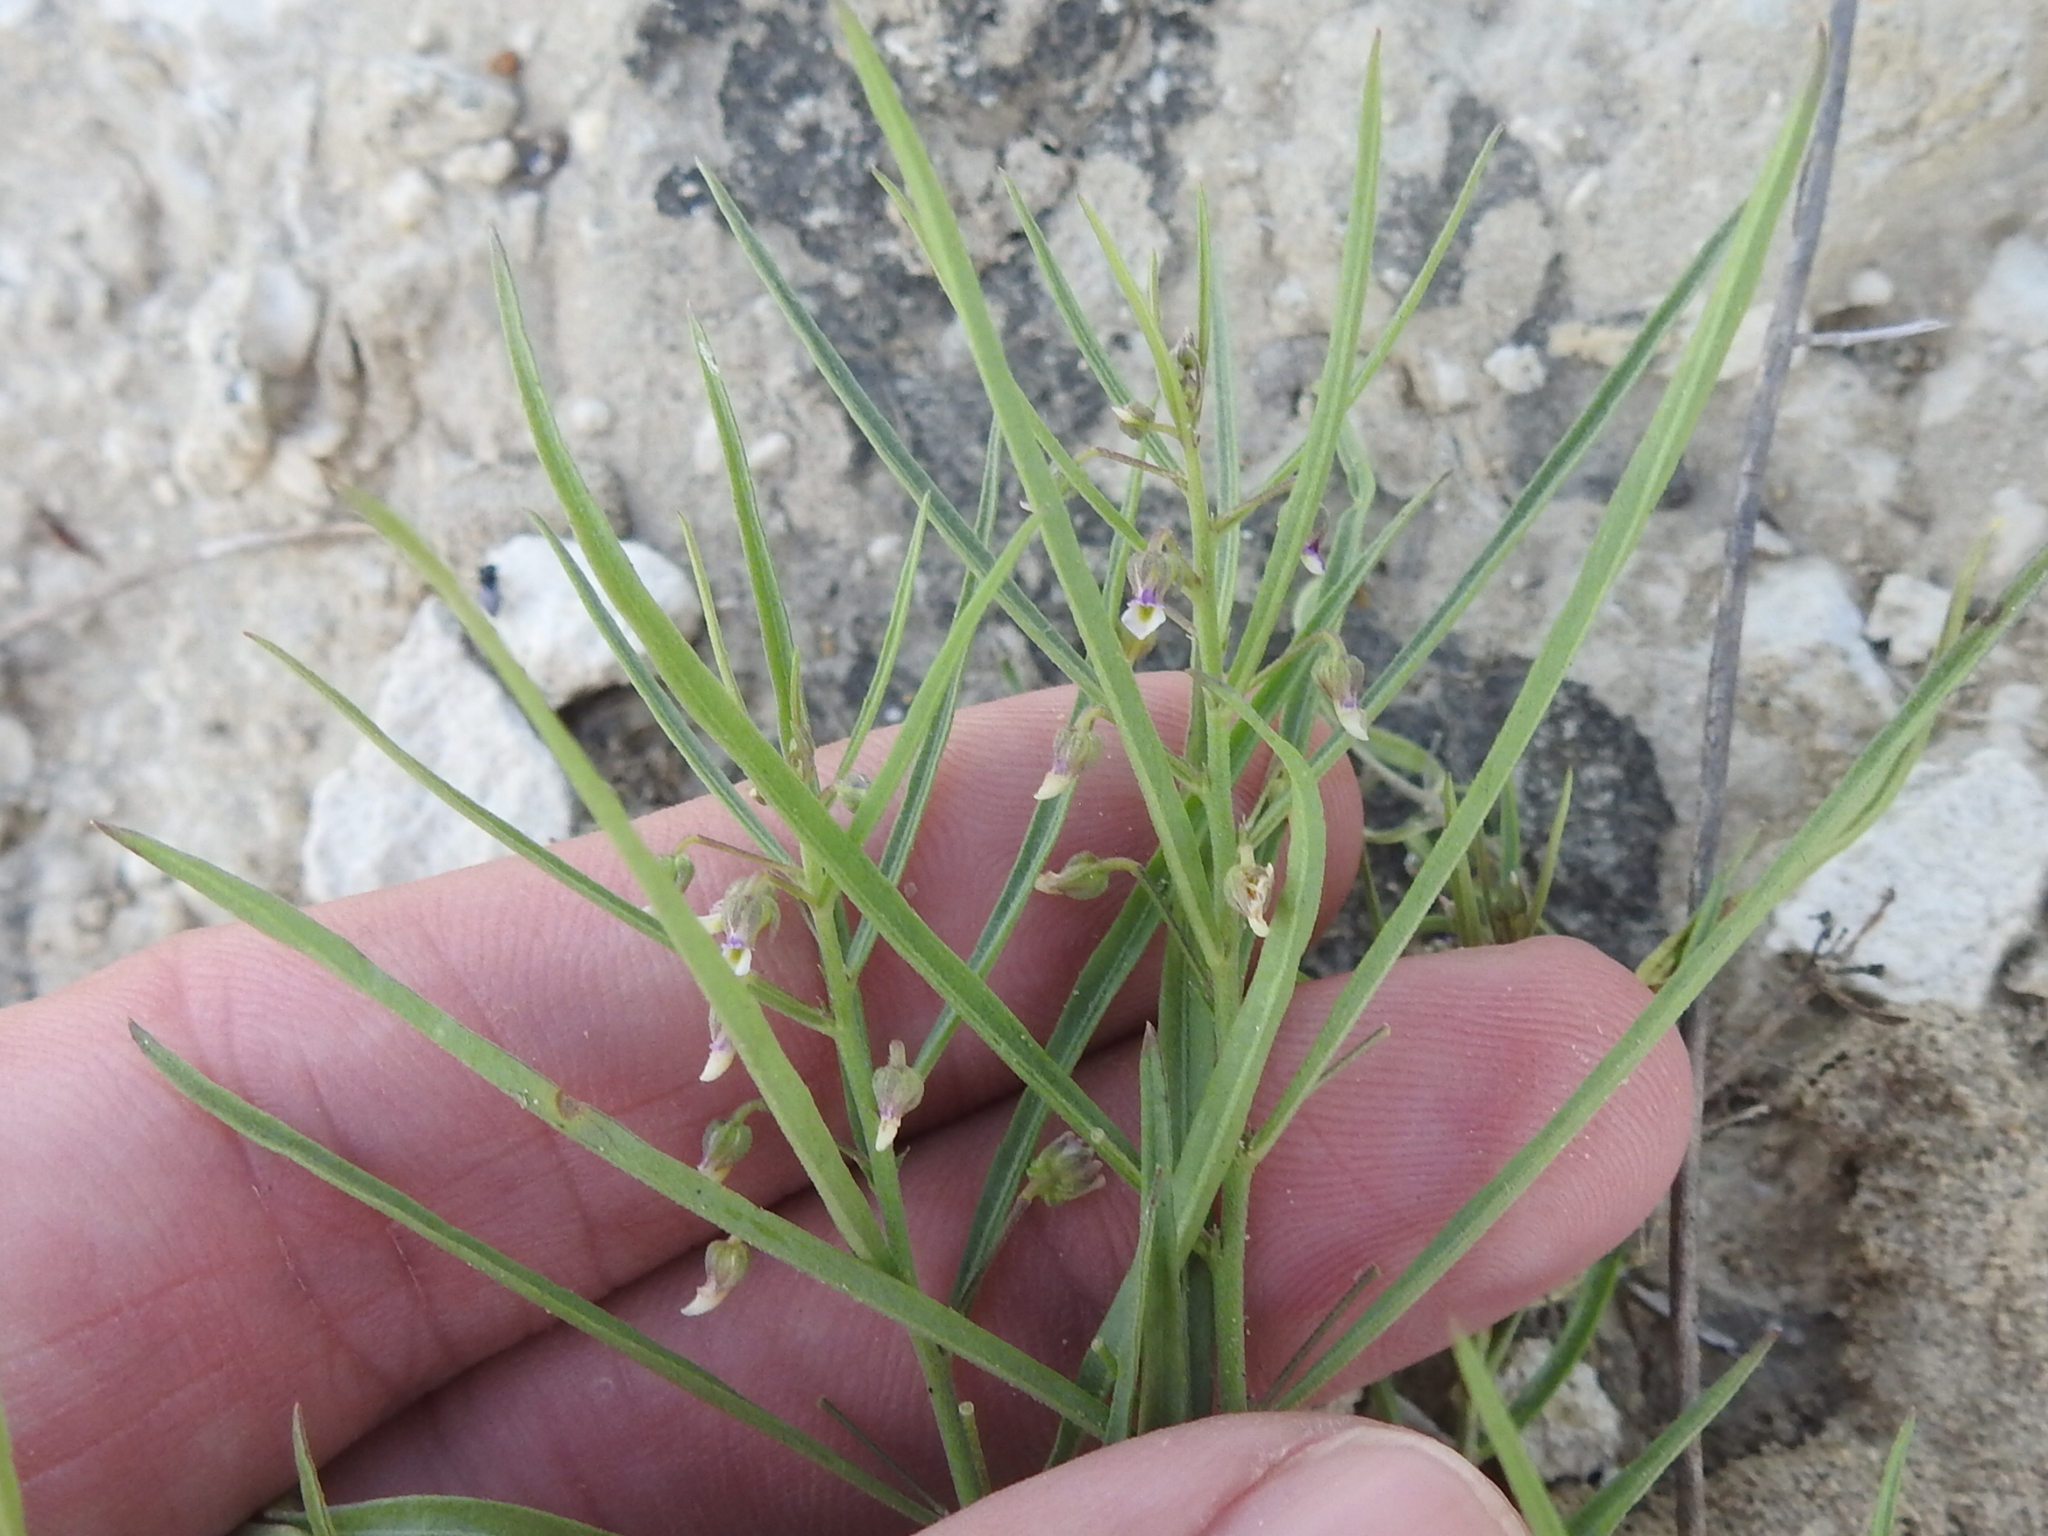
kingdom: Plantae
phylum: Tracheophyta
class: Magnoliopsida
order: Malpighiales
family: Violaceae
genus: Pombalia
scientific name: Pombalia verticillata
